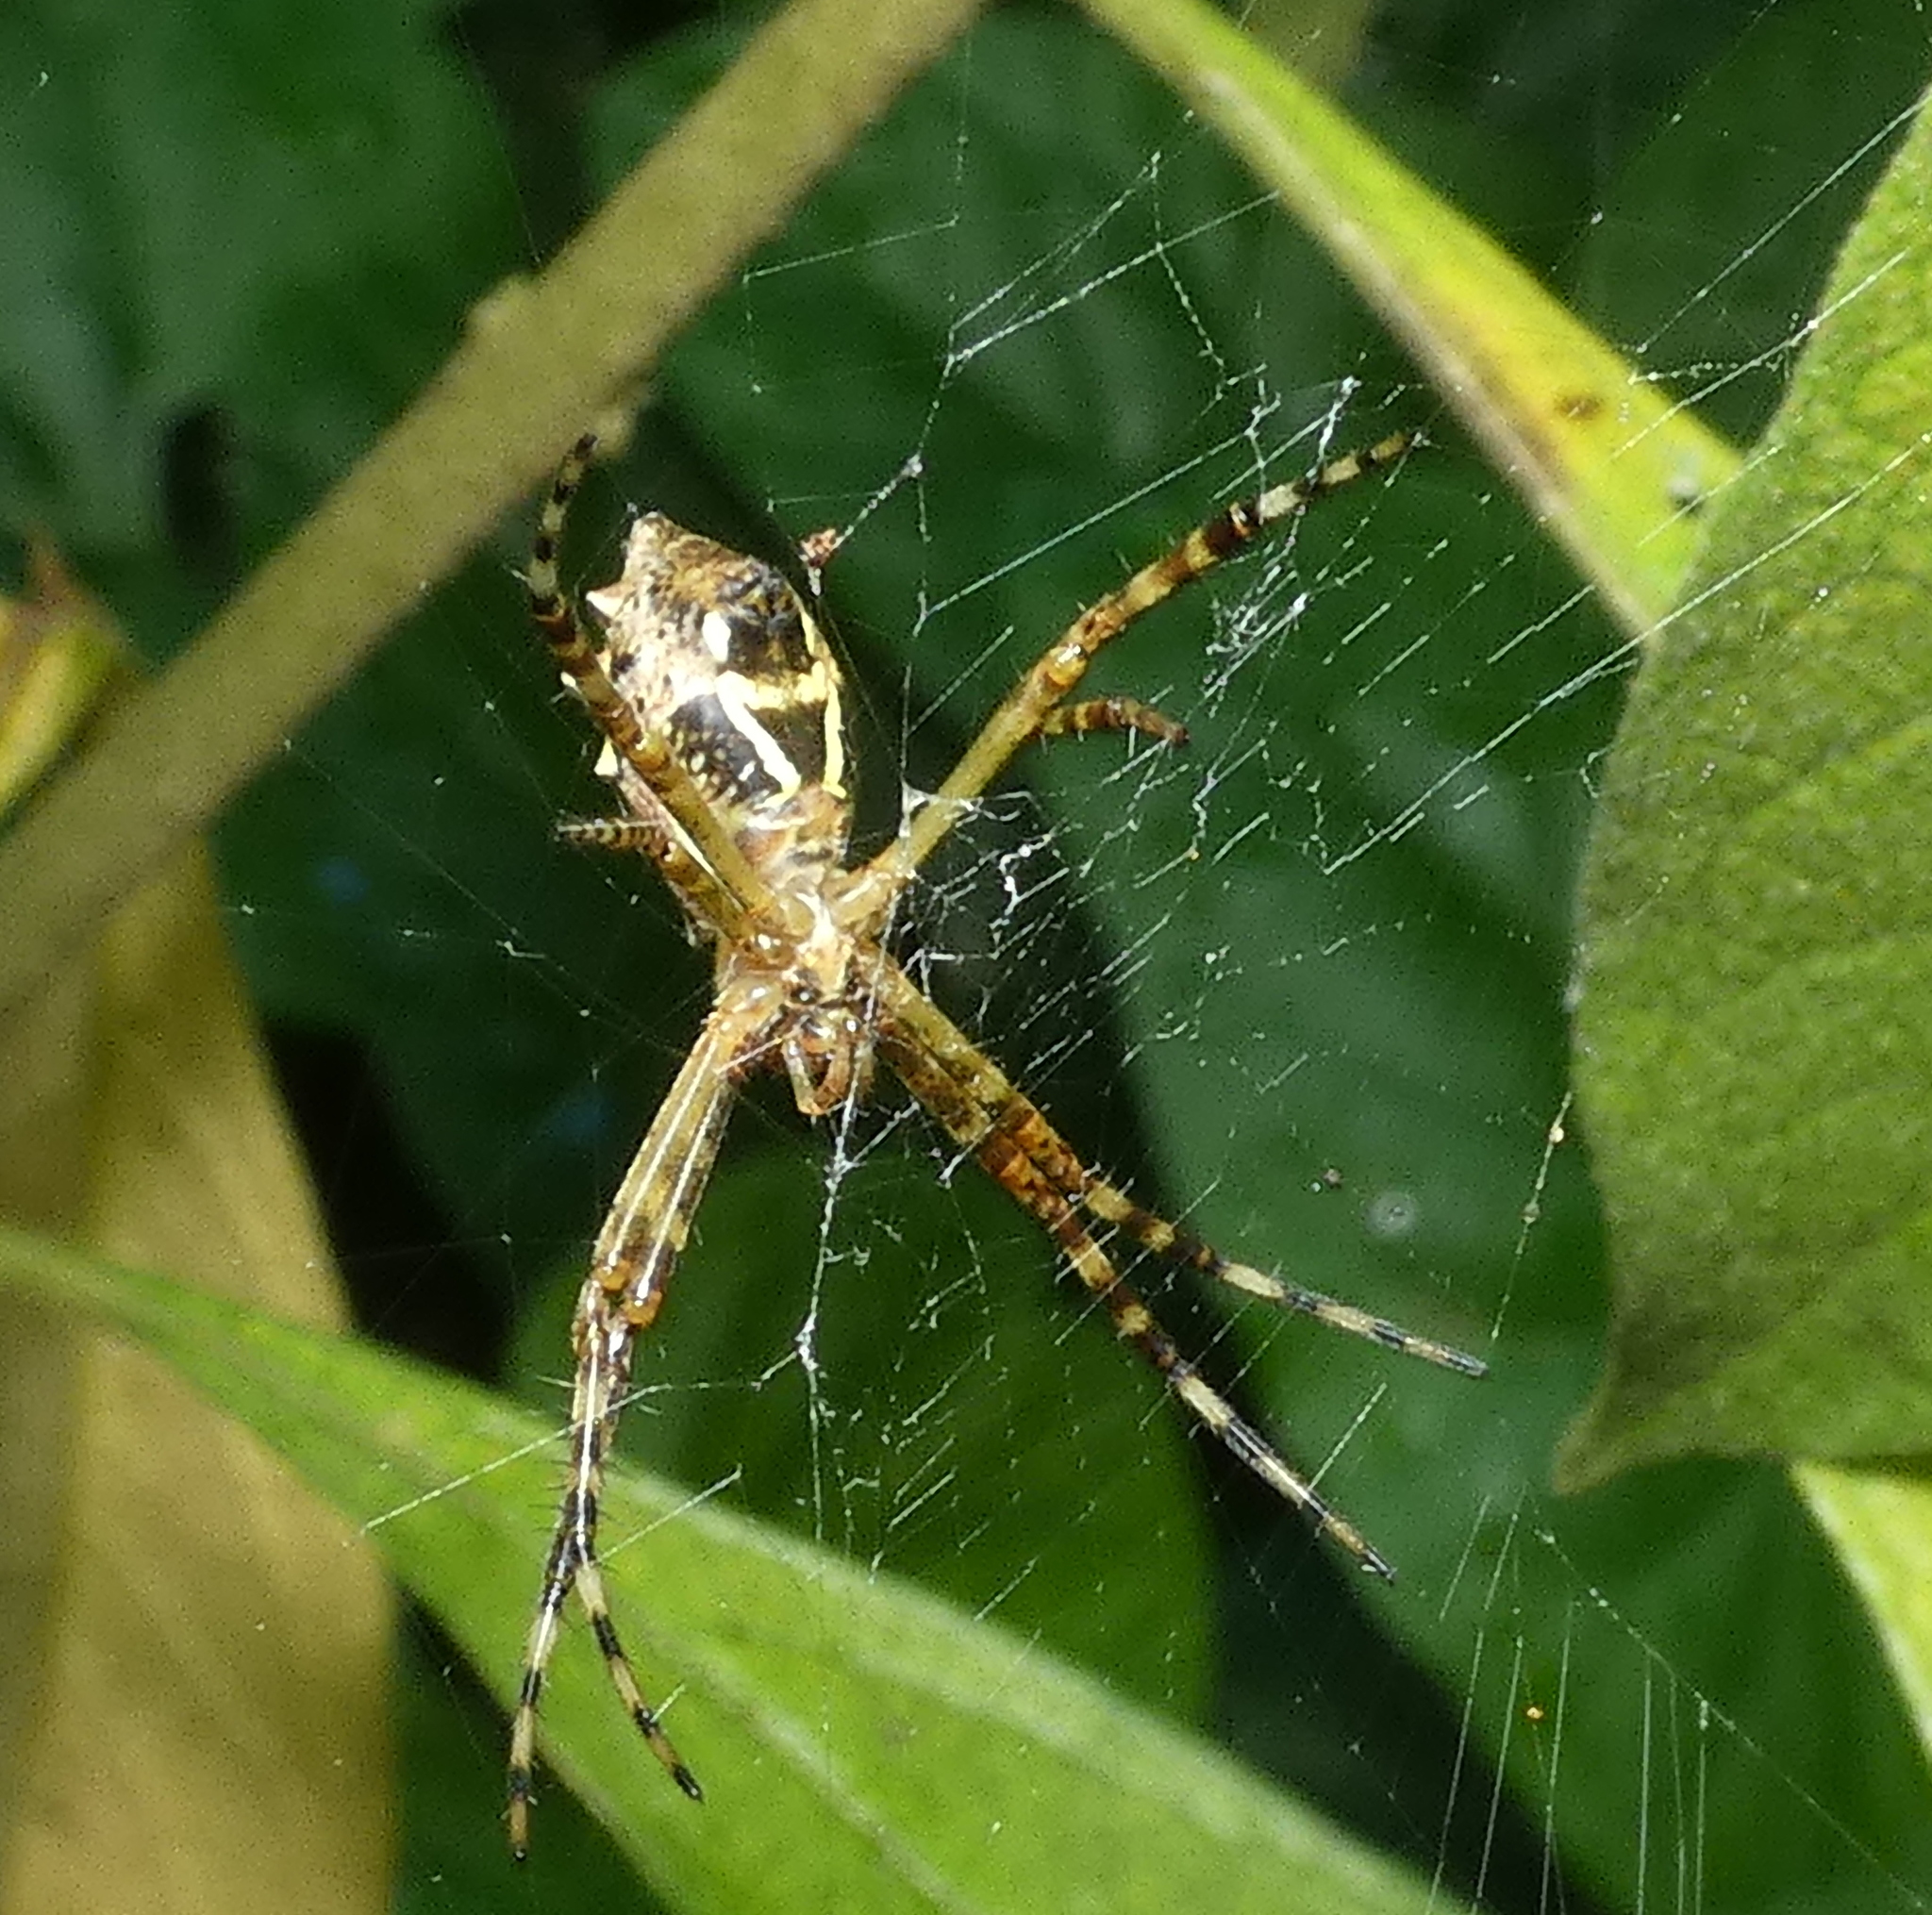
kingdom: Animalia
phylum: Arthropoda
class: Arachnida
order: Araneae
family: Araneidae
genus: Argiope
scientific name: Argiope argentata
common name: Orb weavers
